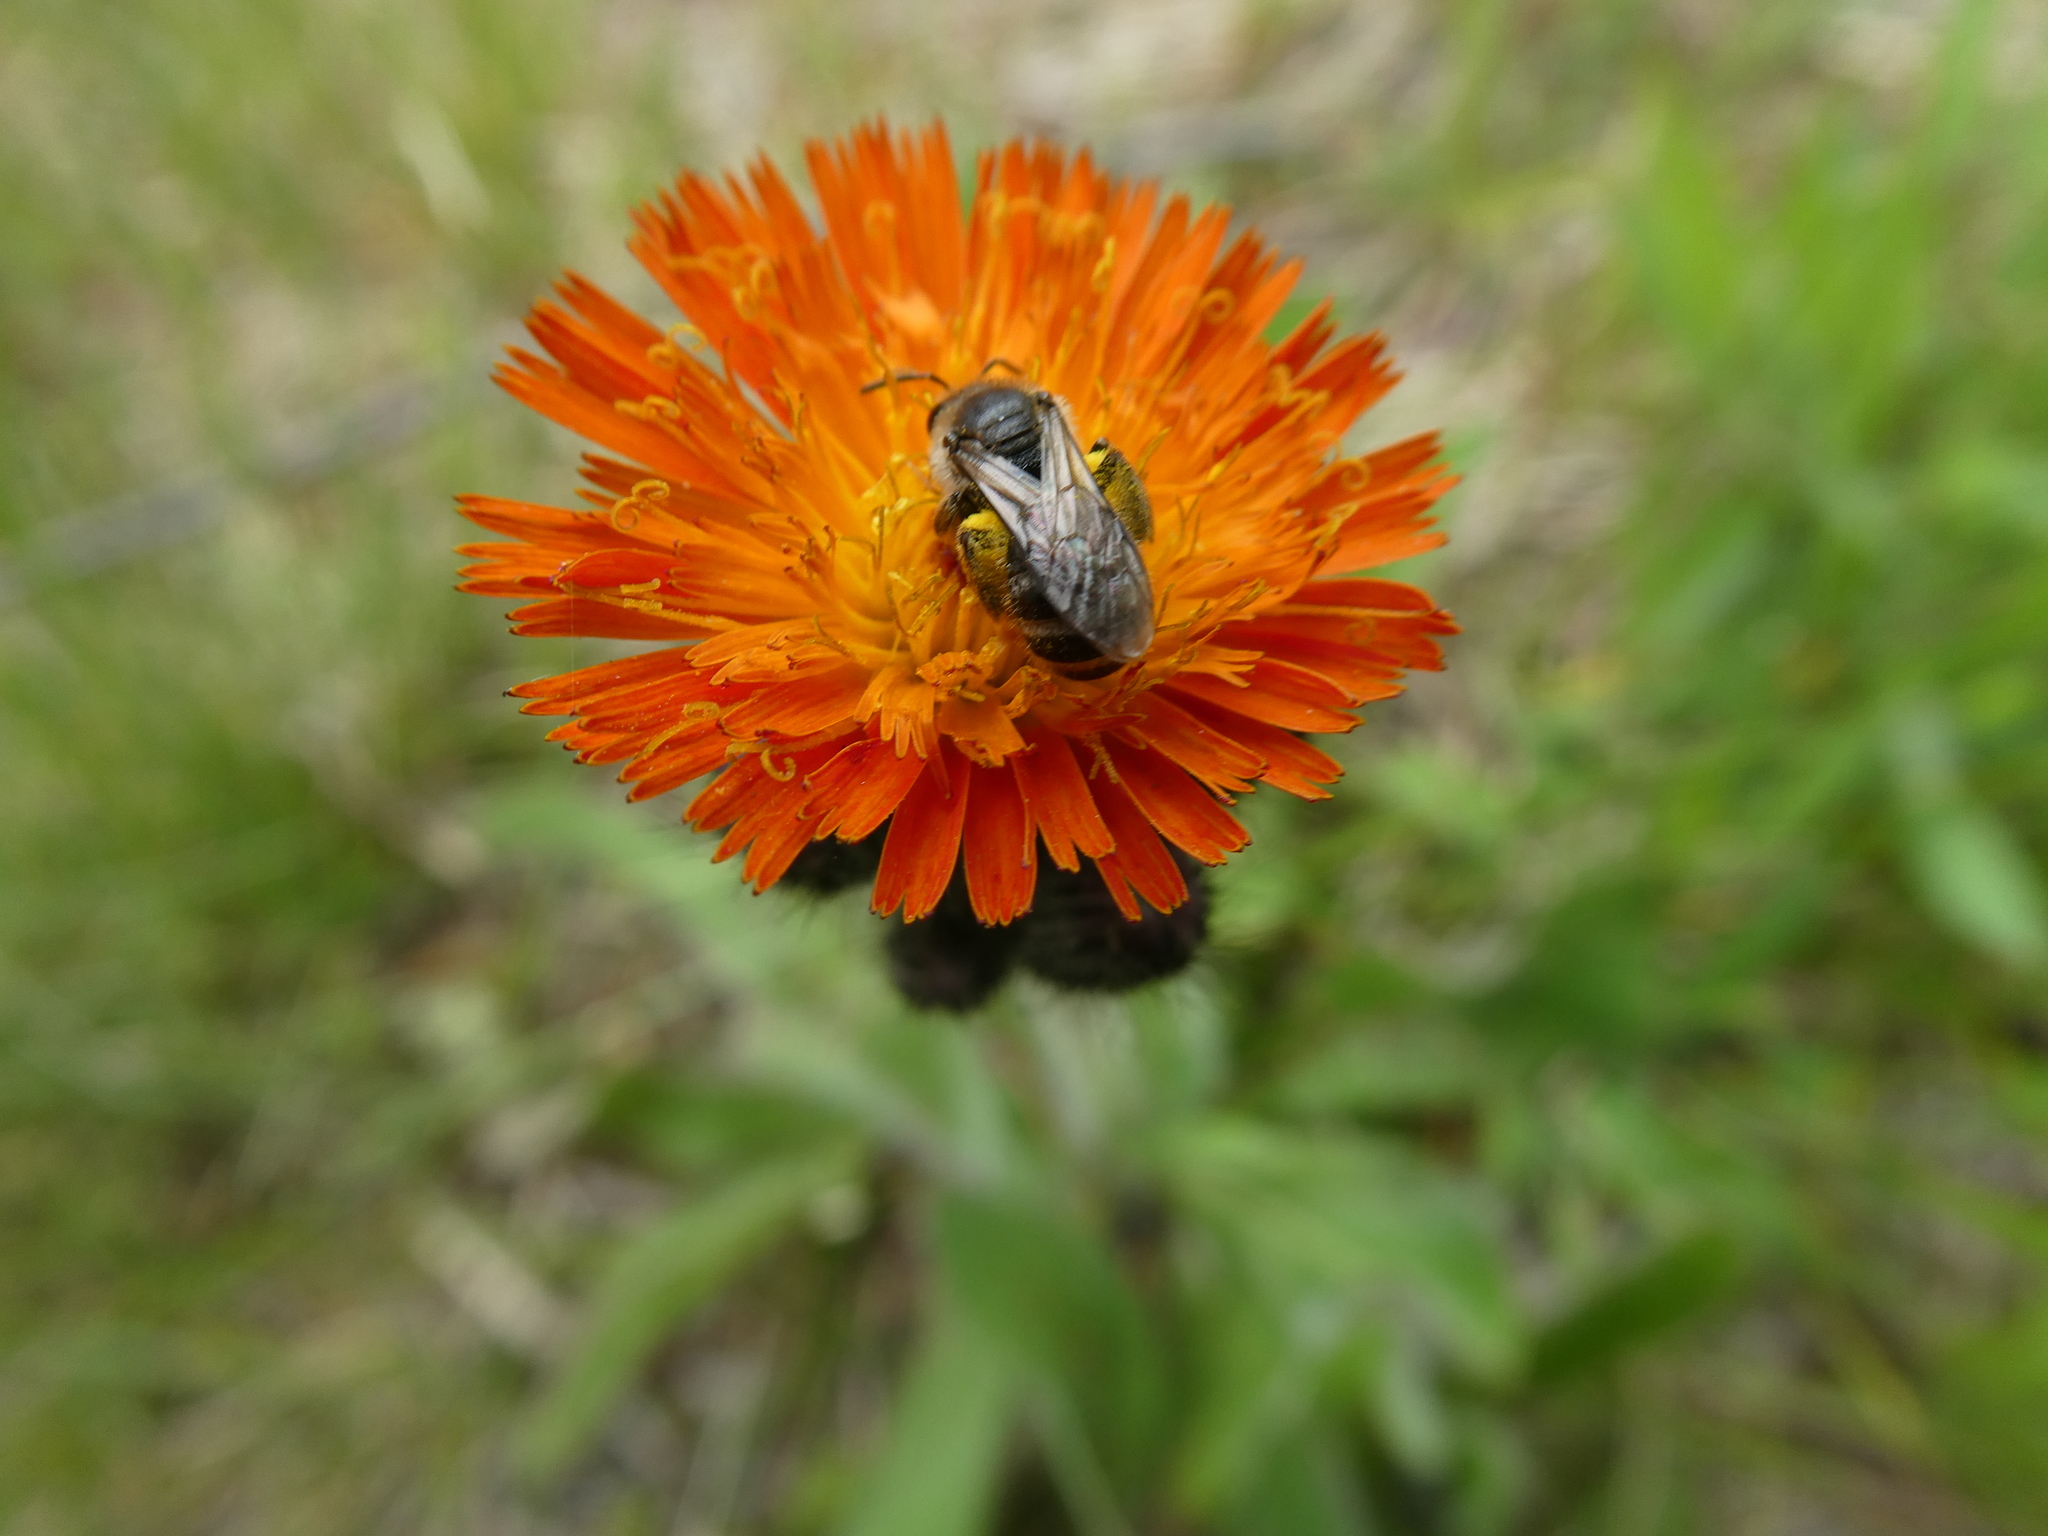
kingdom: Plantae
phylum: Tracheophyta
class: Magnoliopsida
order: Asterales
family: Asteraceae
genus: Pilosella
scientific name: Pilosella aurantiaca
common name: Fox-and-cubs
